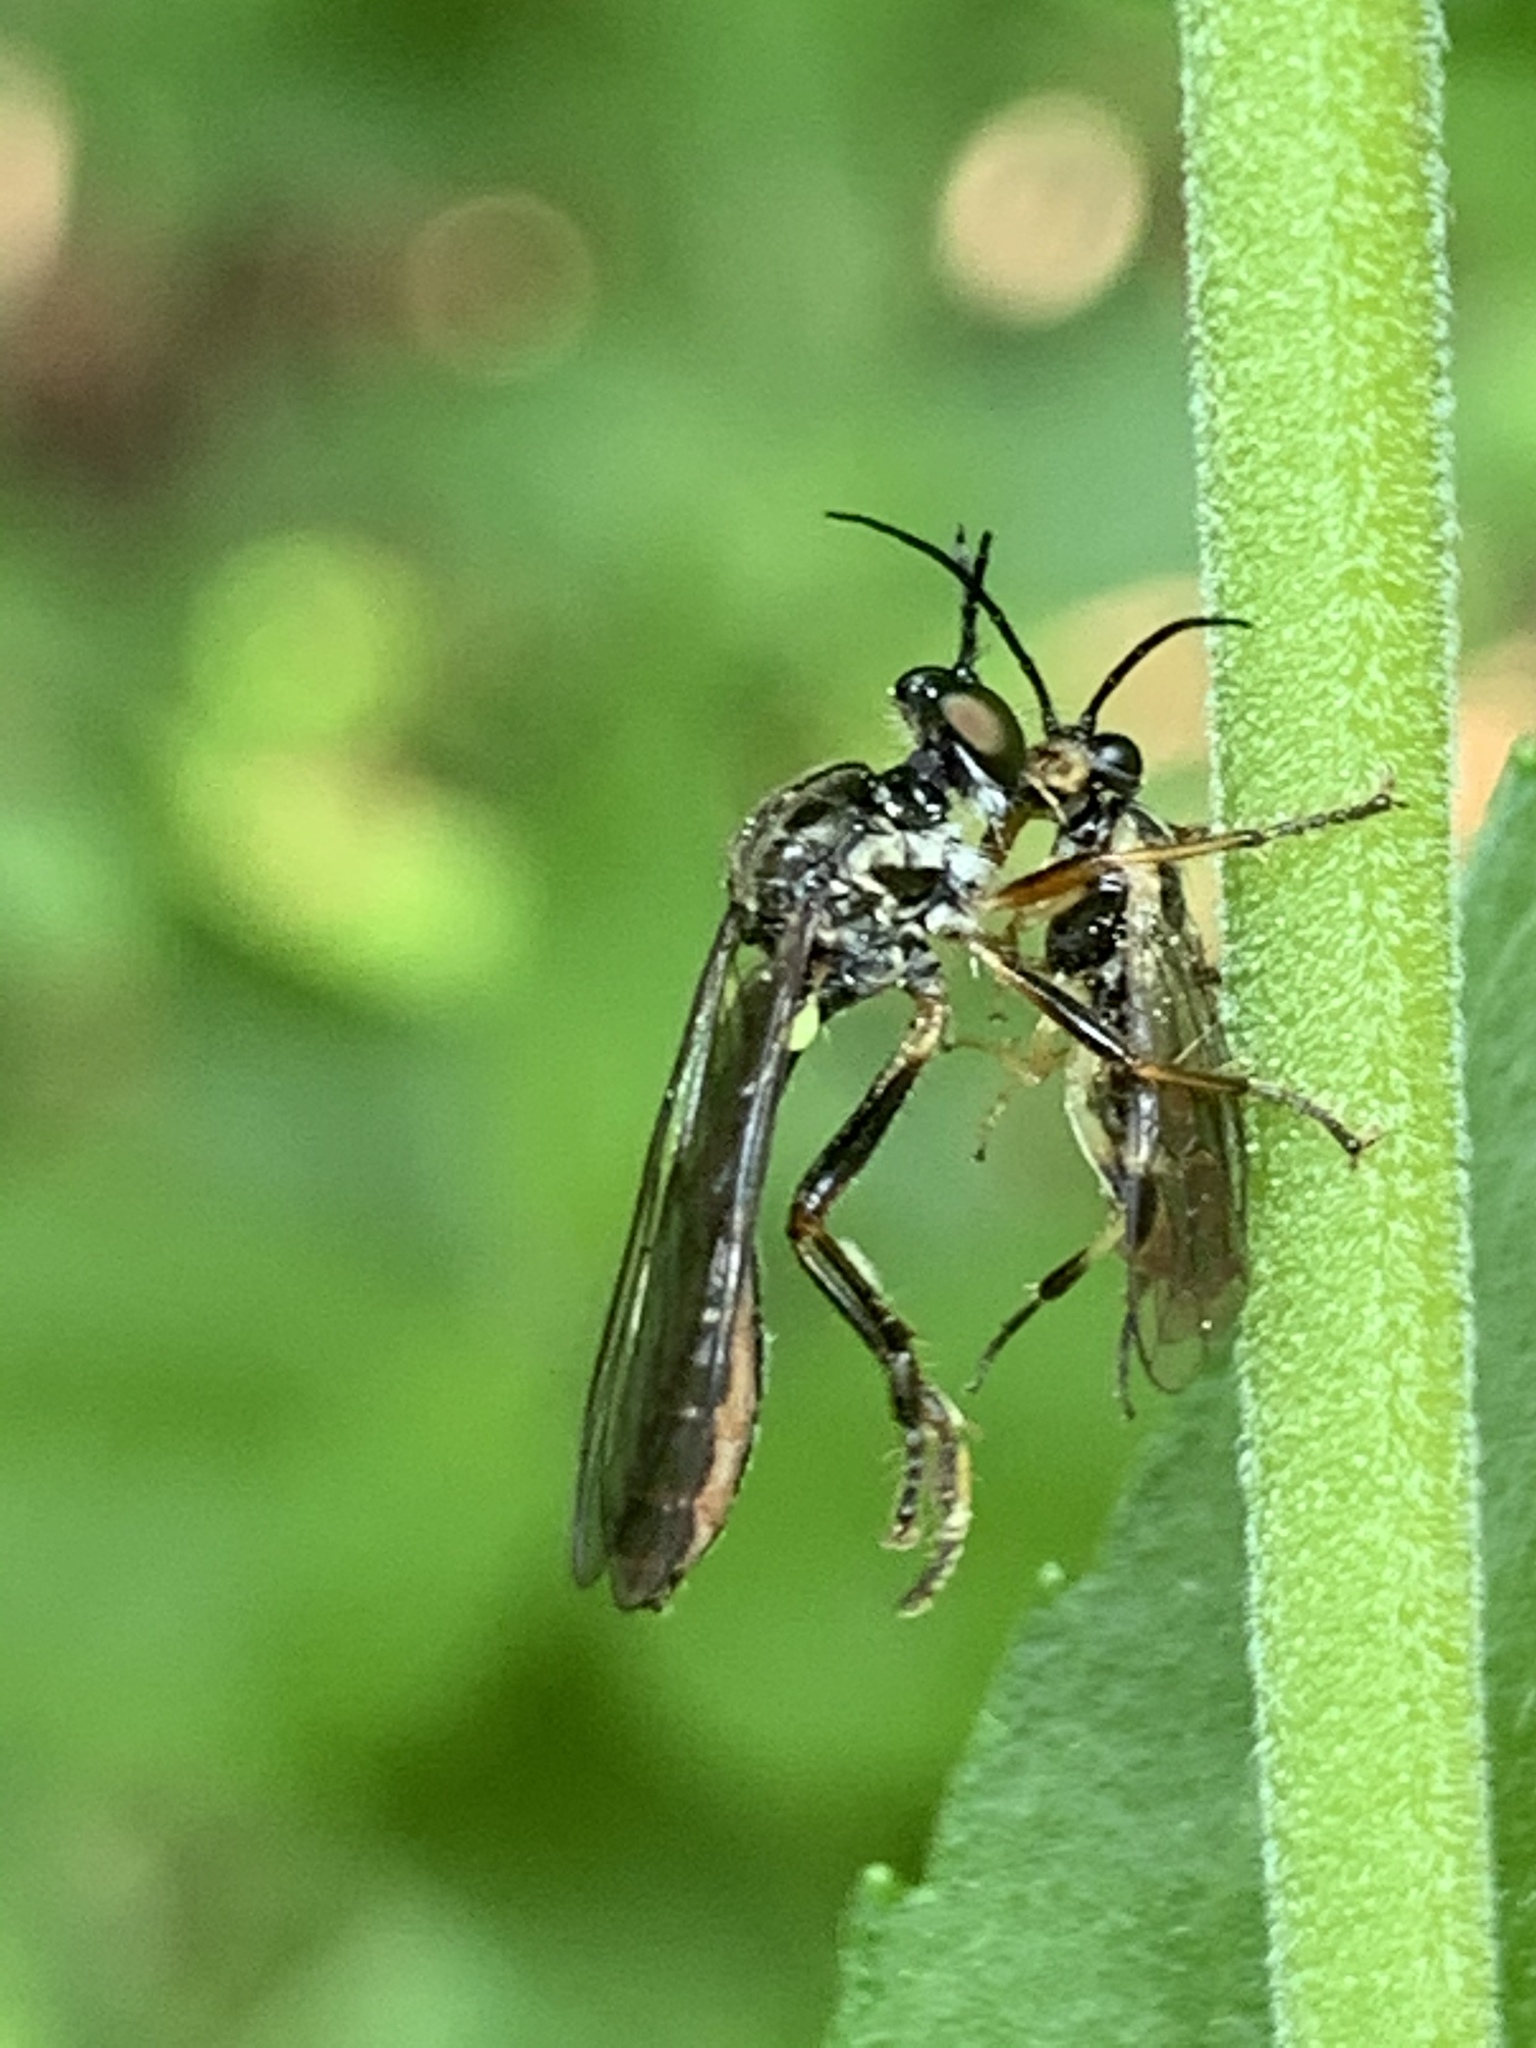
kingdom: Animalia
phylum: Arthropoda
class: Insecta
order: Diptera
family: Asilidae
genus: Dioctria
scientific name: Dioctria hyalipennis
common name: Stripe-legged robberfly
